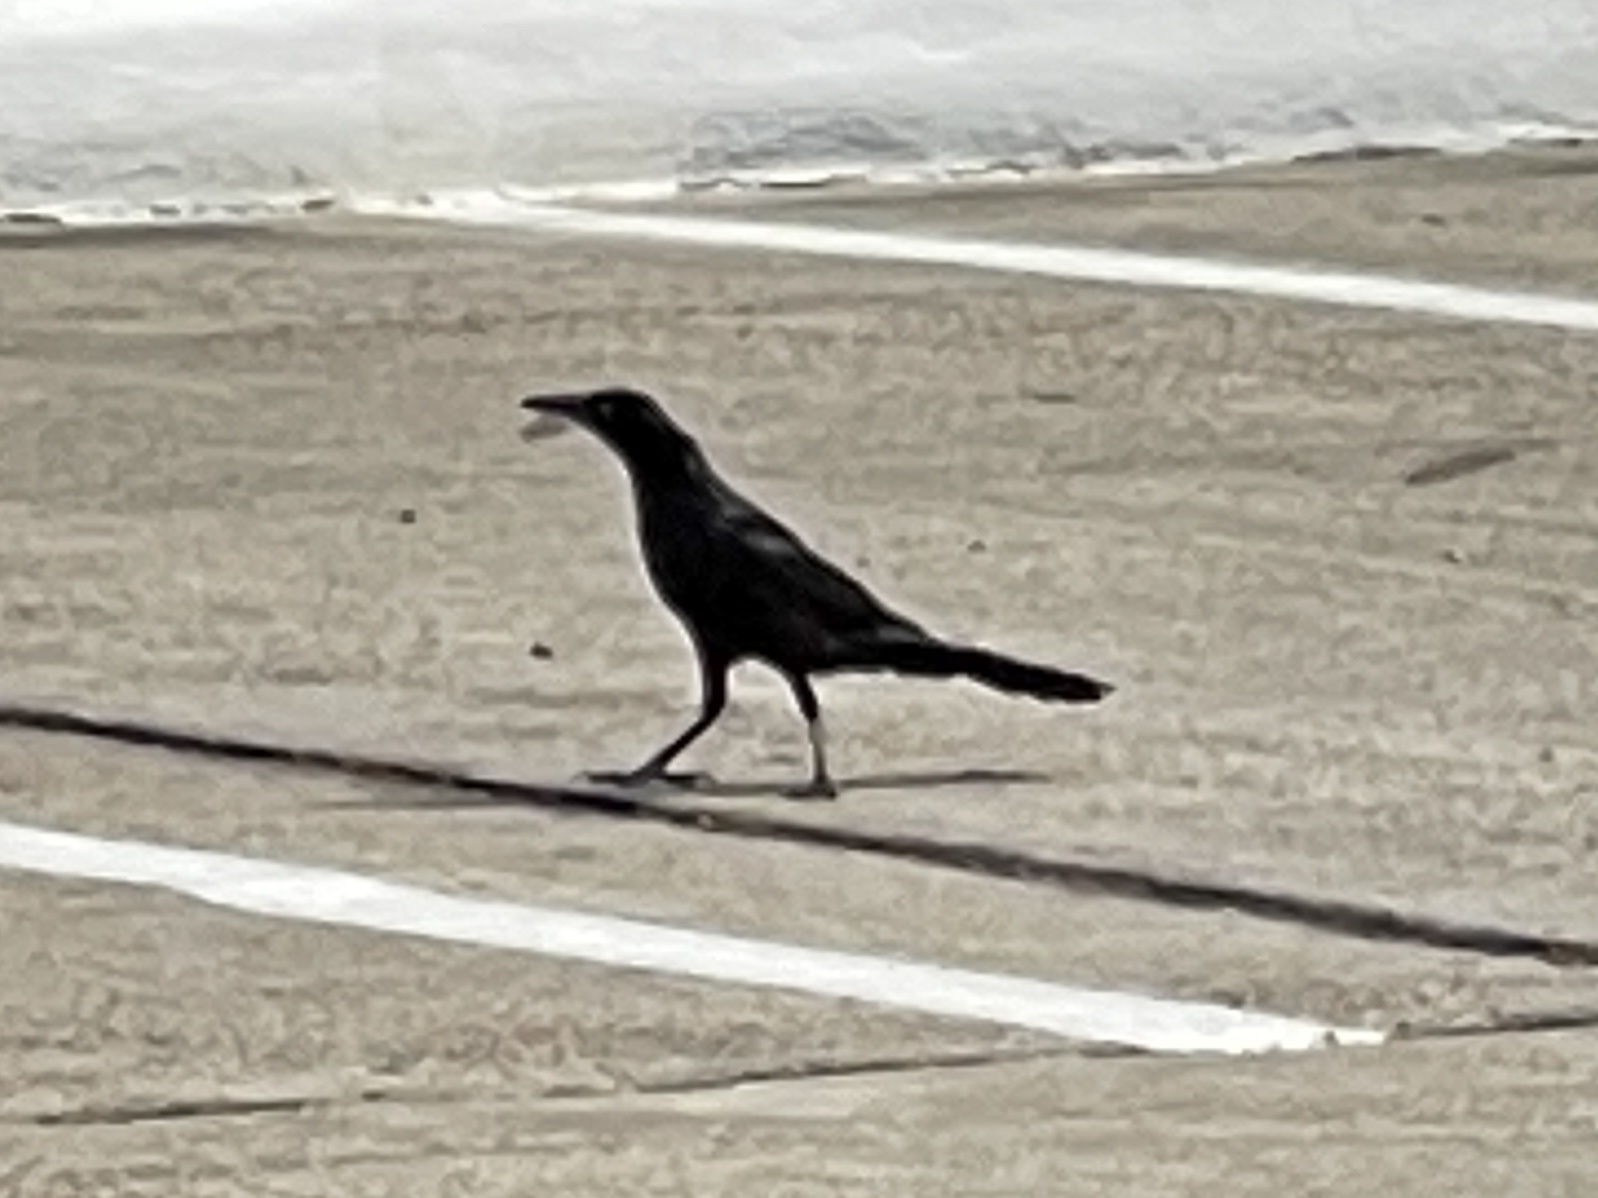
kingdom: Animalia
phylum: Chordata
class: Aves
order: Passeriformes
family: Icteridae
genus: Quiscalus
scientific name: Quiscalus mexicanus
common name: Great-tailed grackle
